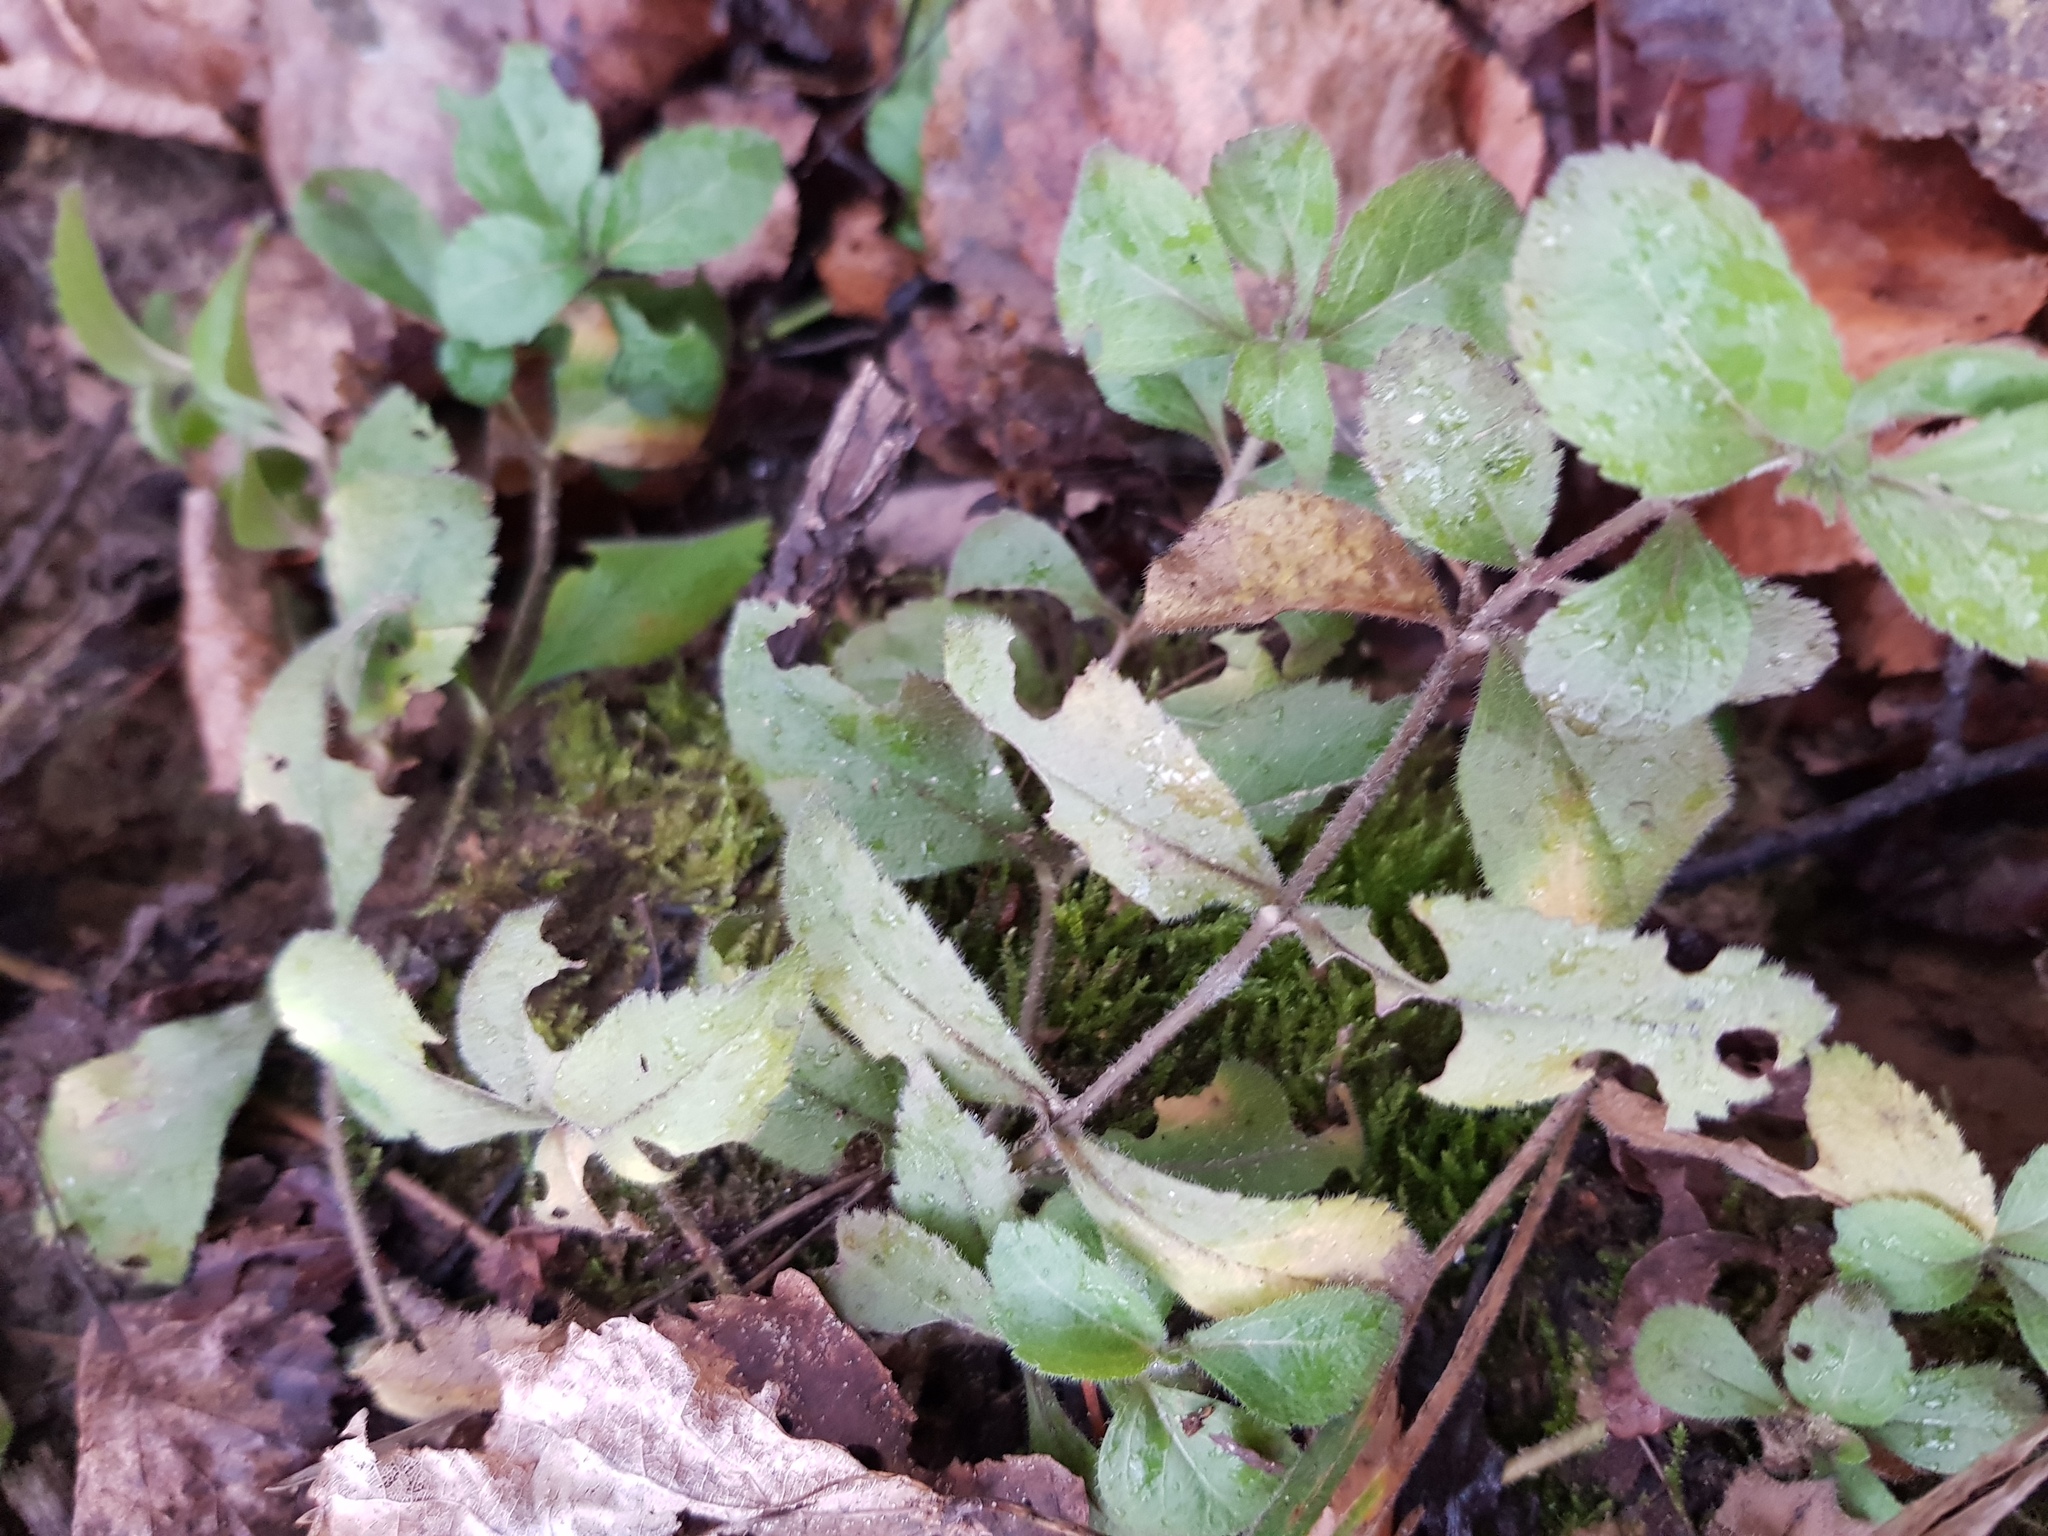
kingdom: Plantae
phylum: Tracheophyta
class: Magnoliopsida
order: Lamiales
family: Plantaginaceae
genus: Veronica
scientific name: Veronica officinalis
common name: Common speedwell
